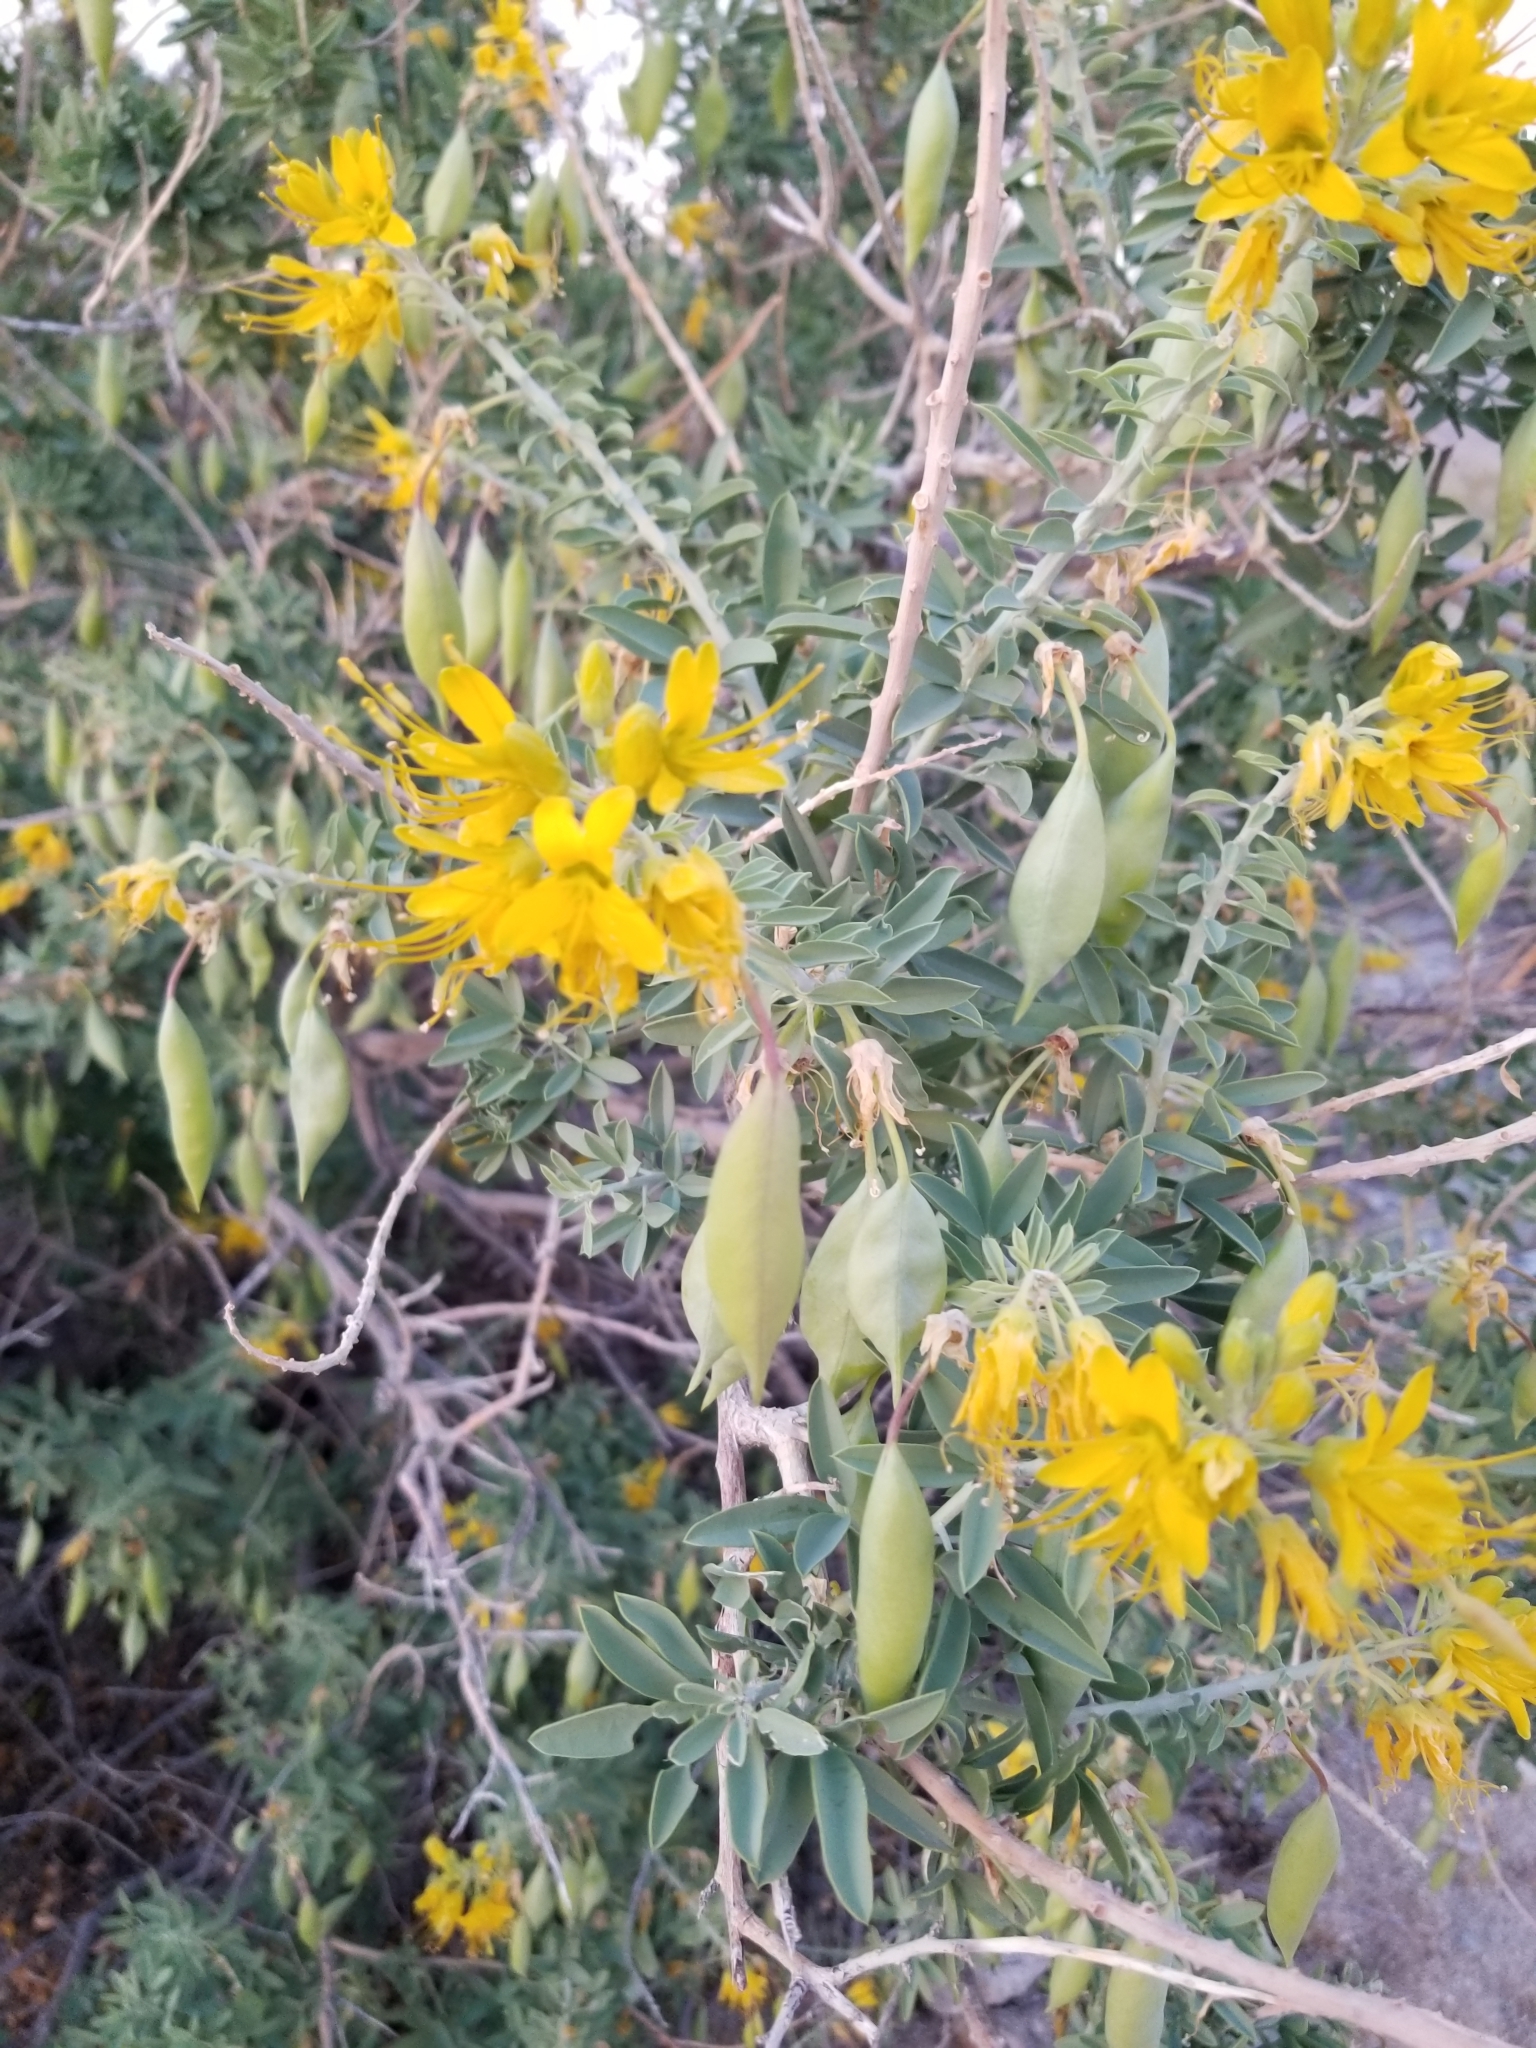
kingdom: Plantae
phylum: Tracheophyta
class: Magnoliopsida
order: Brassicales
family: Cleomaceae
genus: Cleomella
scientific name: Cleomella arborea
